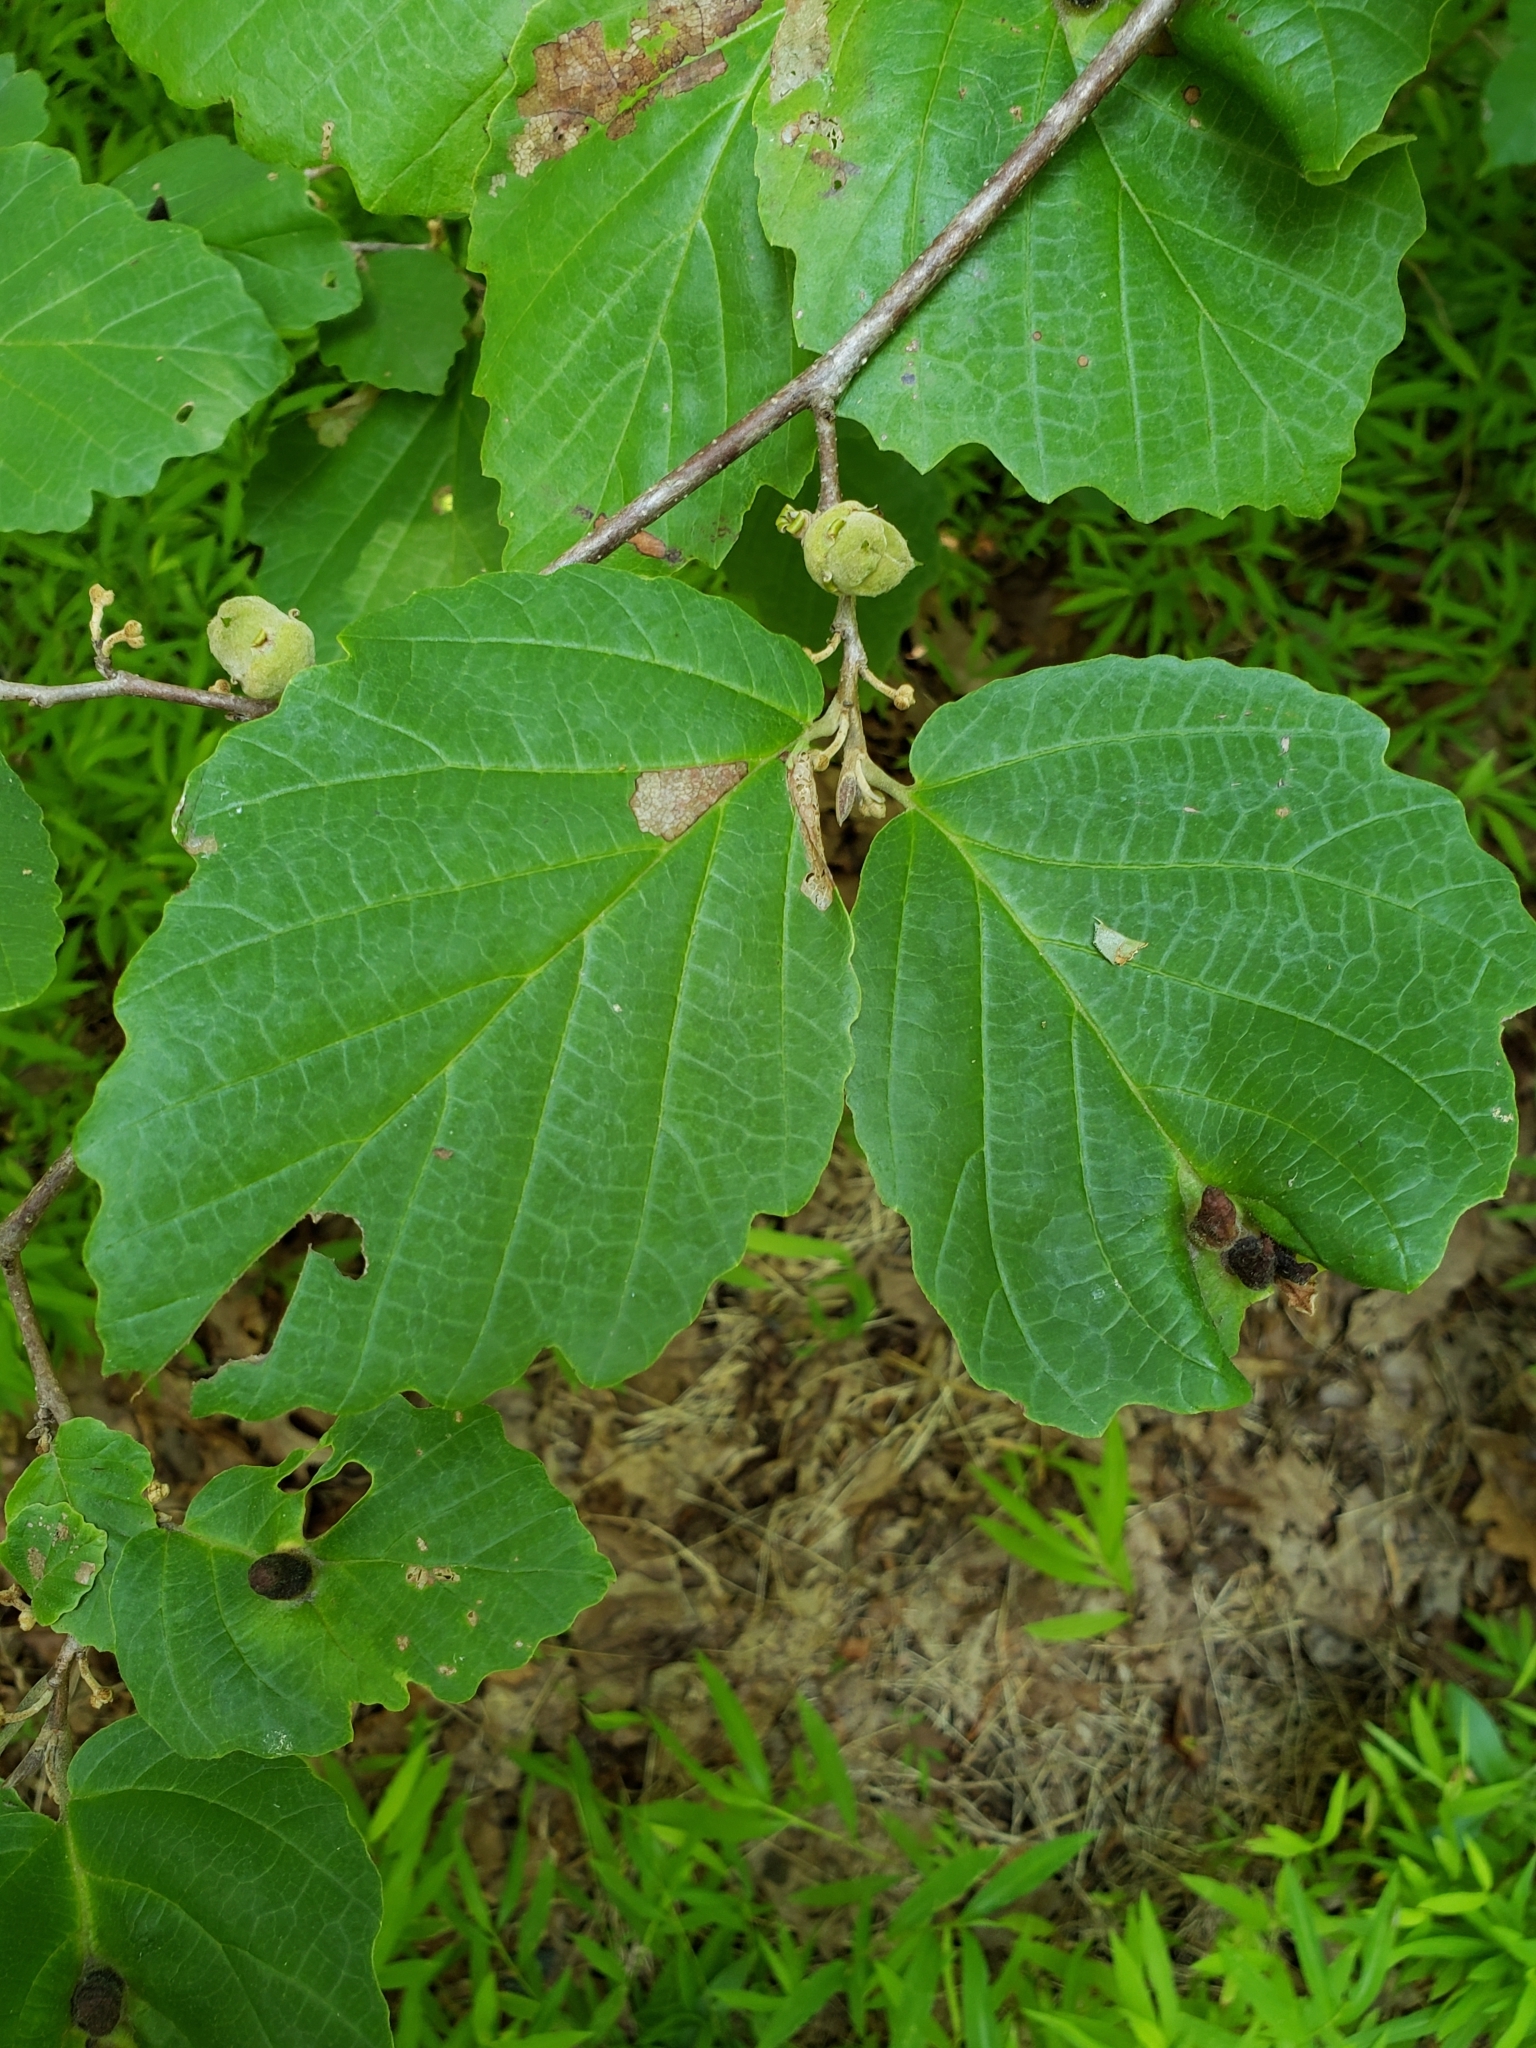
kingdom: Plantae
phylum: Tracheophyta
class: Magnoliopsida
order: Saxifragales
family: Hamamelidaceae
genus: Hamamelis
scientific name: Hamamelis virginiana
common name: Witch-hazel
